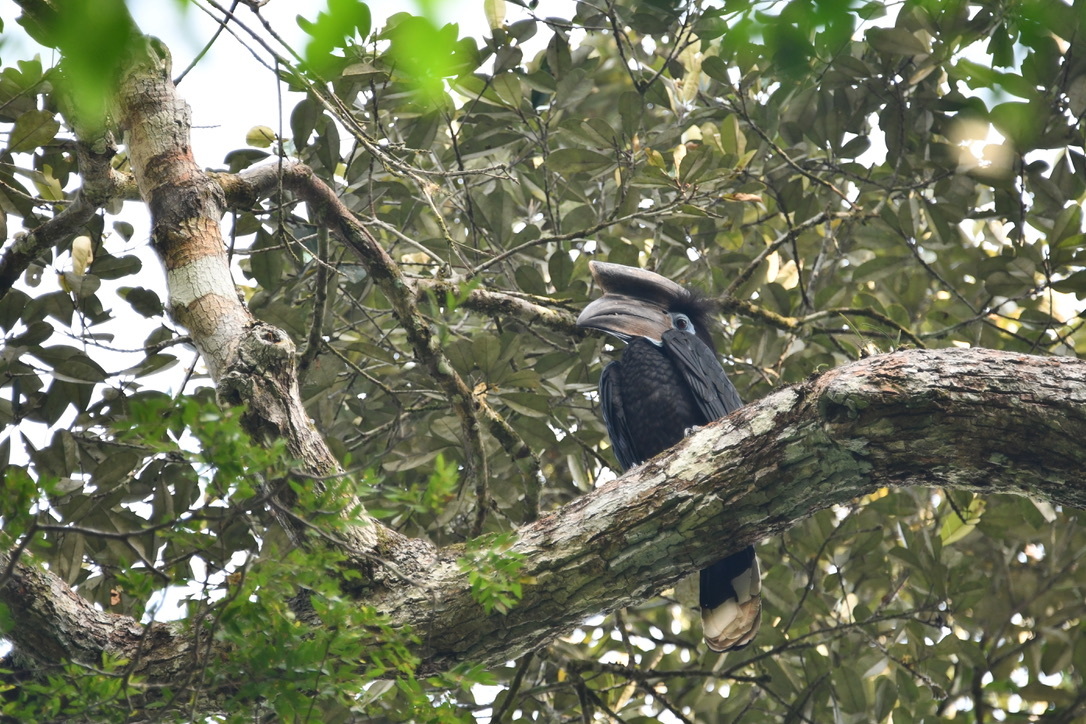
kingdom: Animalia
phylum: Chordata
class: Aves
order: Bucerotiformes
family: Bucerotidae
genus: Ceratogymna
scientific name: Ceratogymna atrata
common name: Black-casqued hornbill
